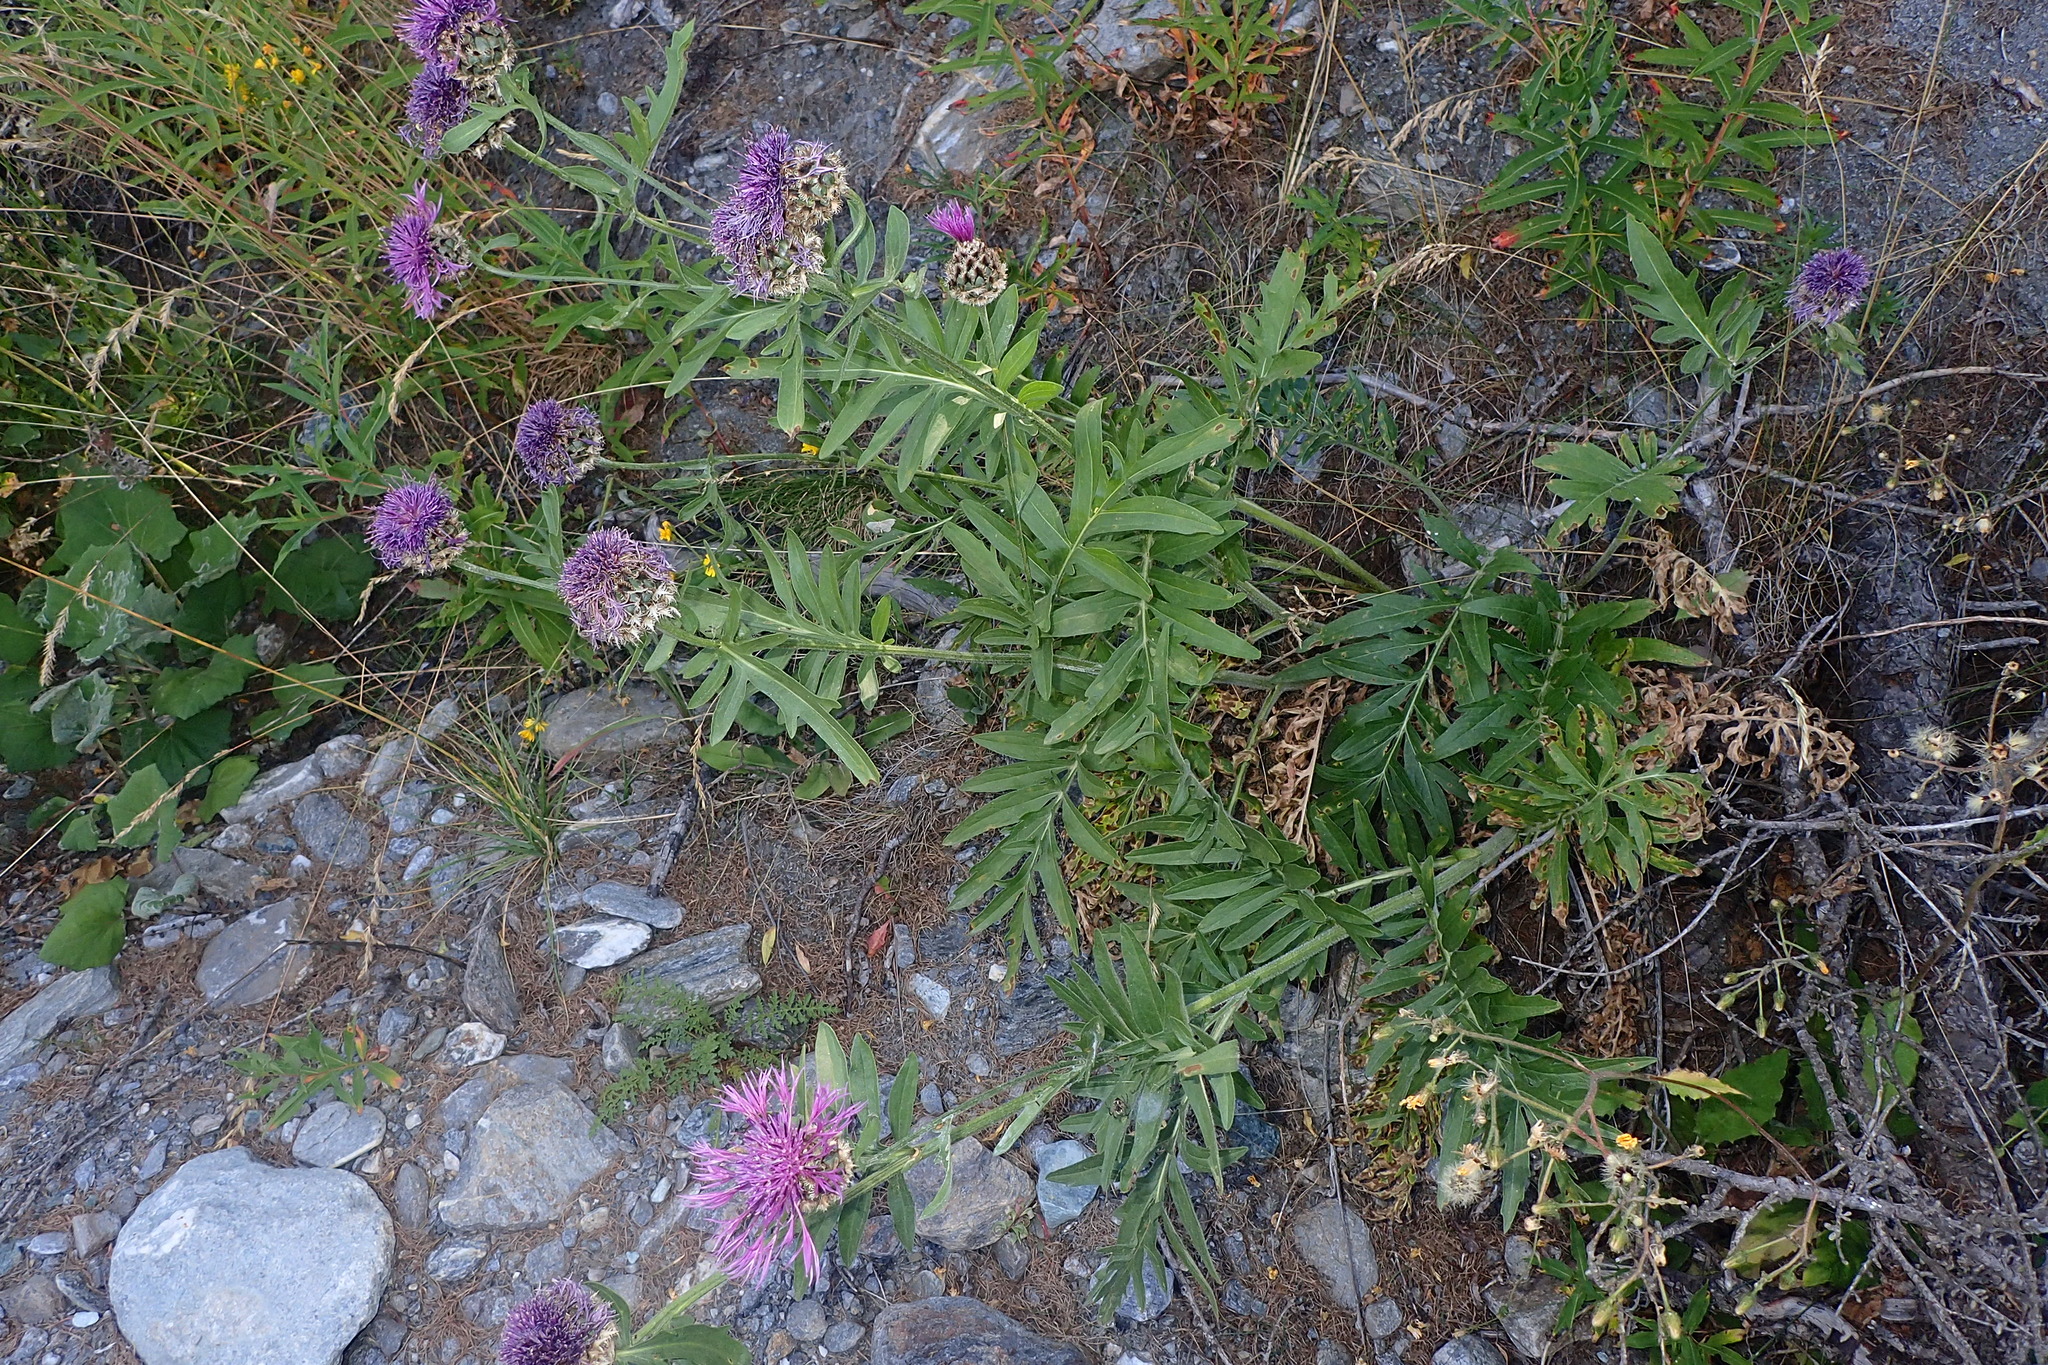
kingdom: Plantae
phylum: Tracheophyta
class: Magnoliopsida
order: Asterales
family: Asteraceae
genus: Centaurea
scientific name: Centaurea scabiosa
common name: Greater knapweed
